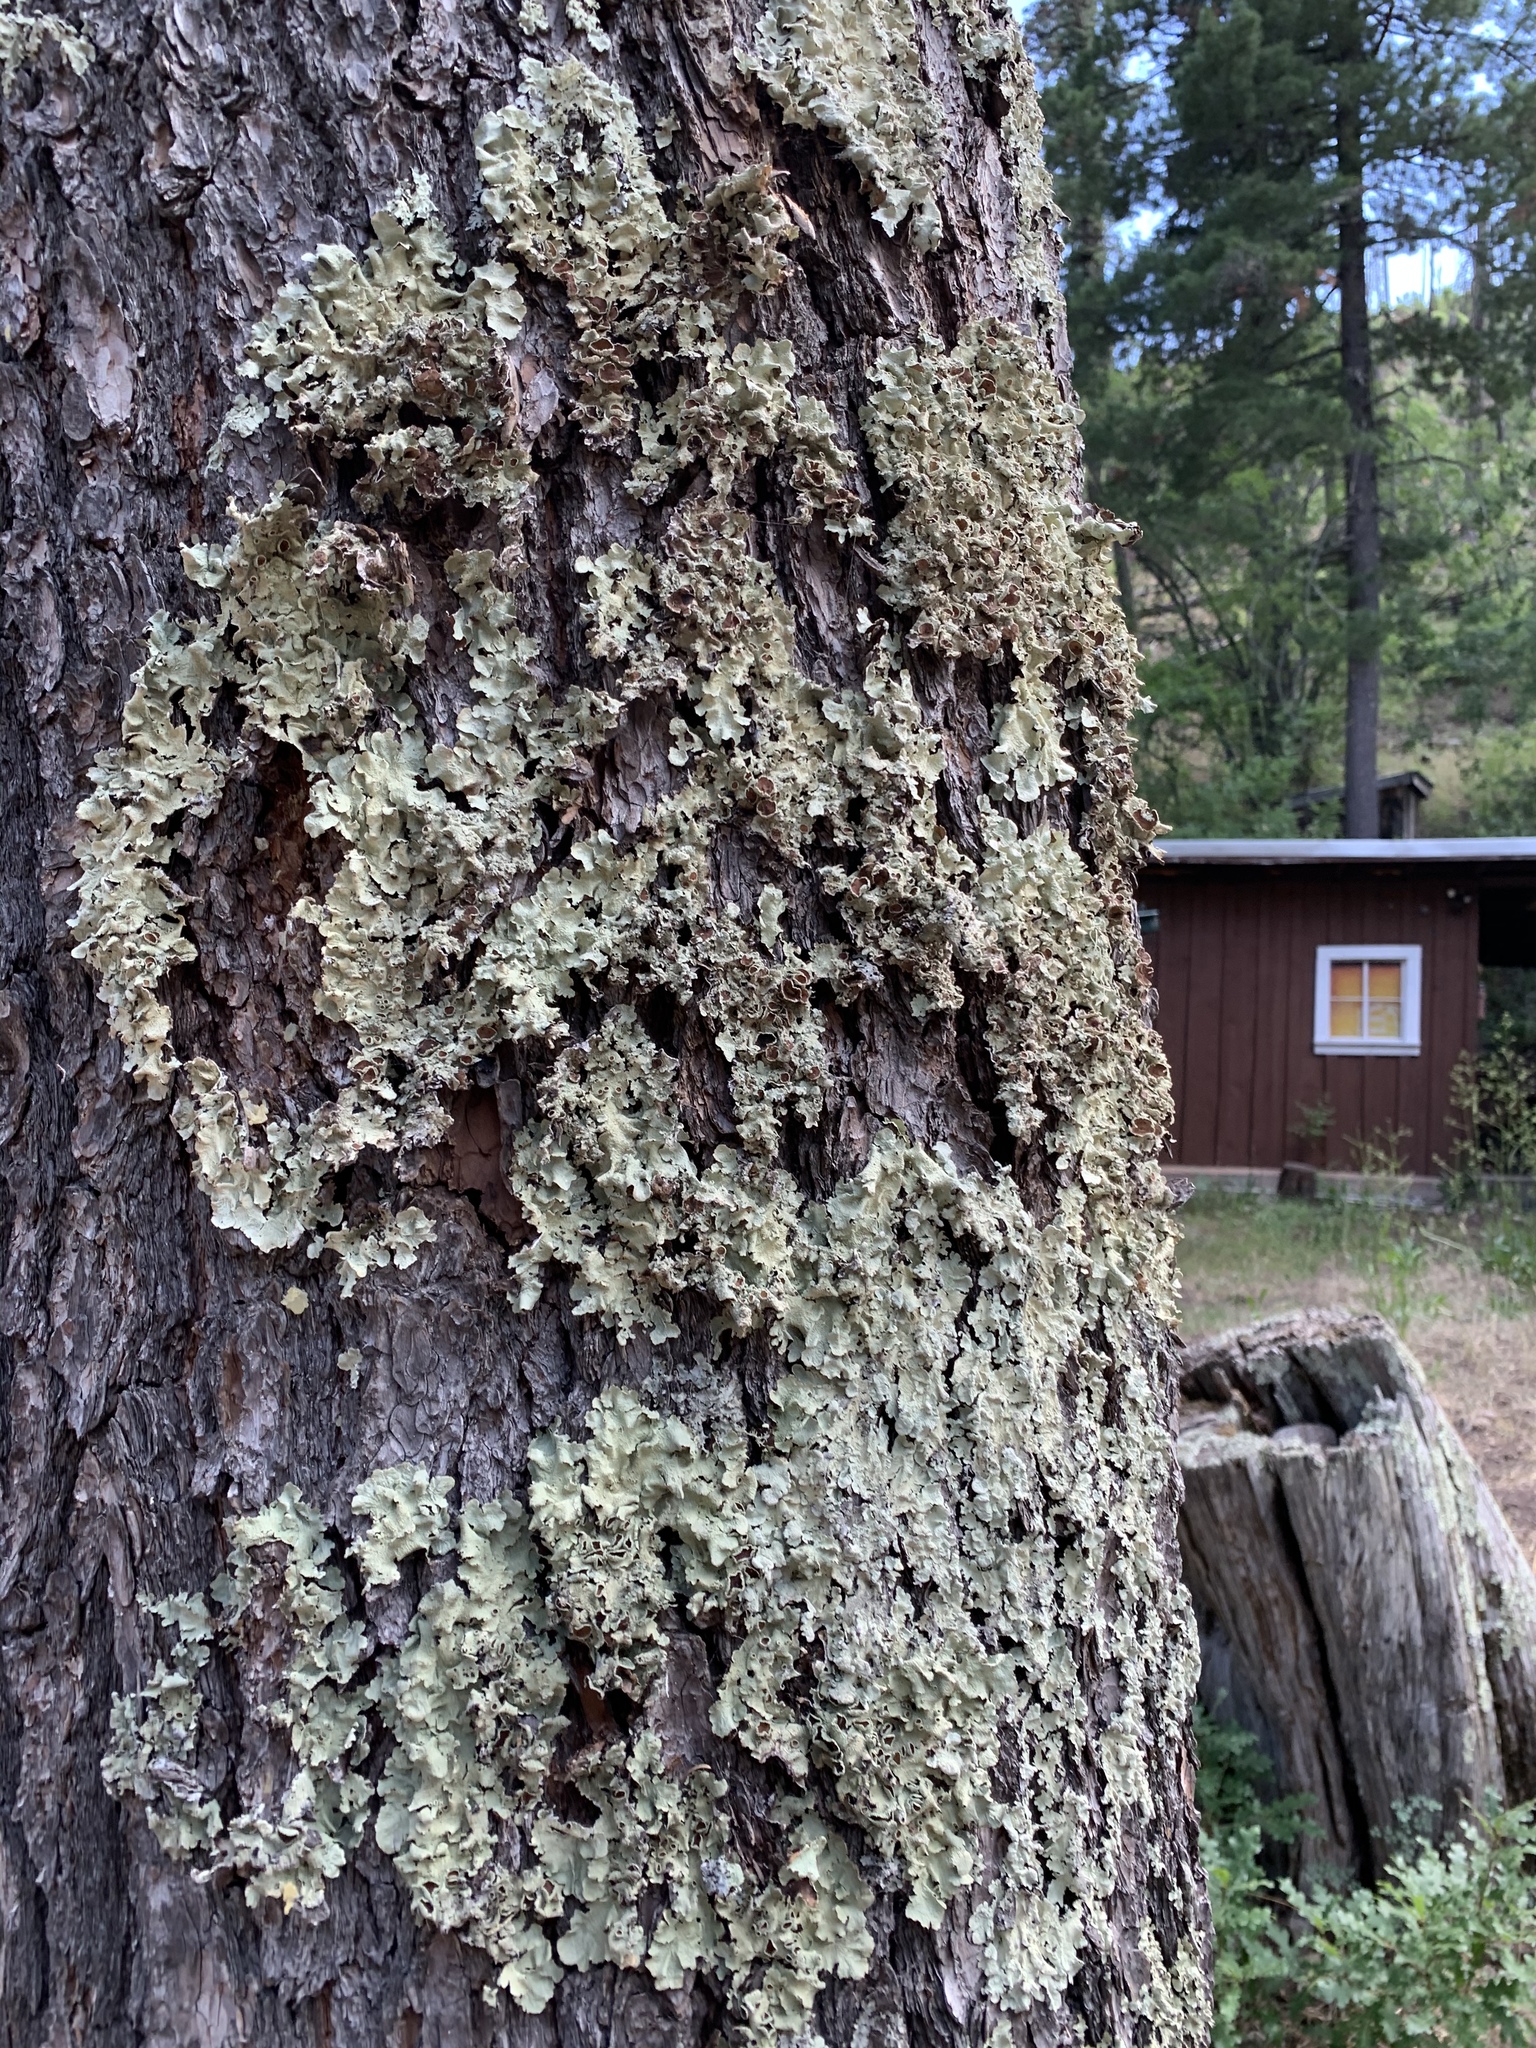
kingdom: Fungi
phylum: Ascomycota
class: Lecanoromycetes
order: Lecanorales
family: Parmeliaceae
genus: Parmelina
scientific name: Parmelina coleae
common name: Fringed shield lichen
